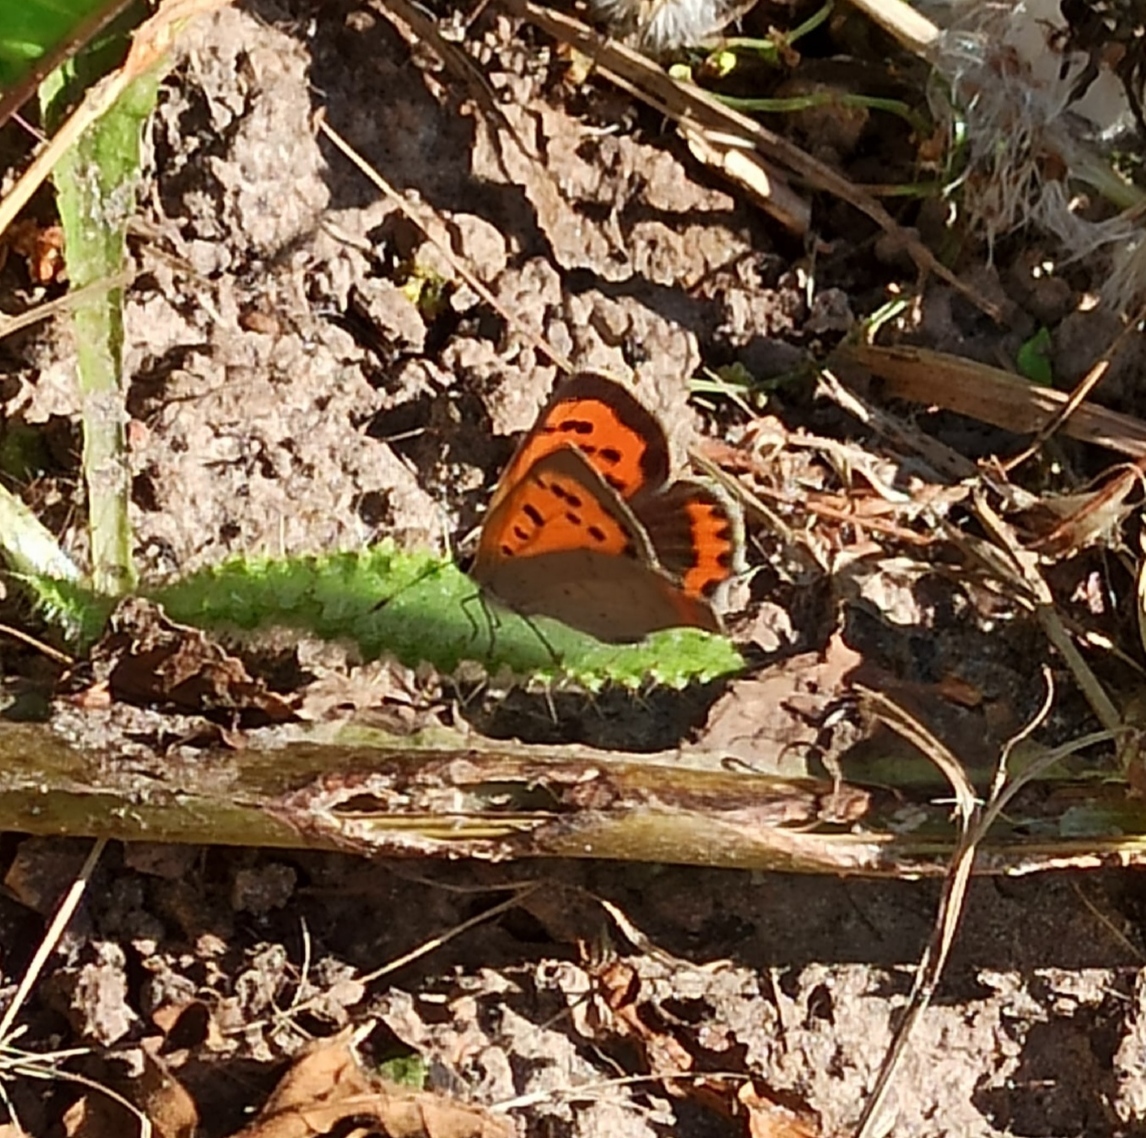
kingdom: Animalia
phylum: Arthropoda
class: Insecta
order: Lepidoptera
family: Lycaenidae
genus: Lycaena
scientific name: Lycaena phlaeas
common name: Small copper
